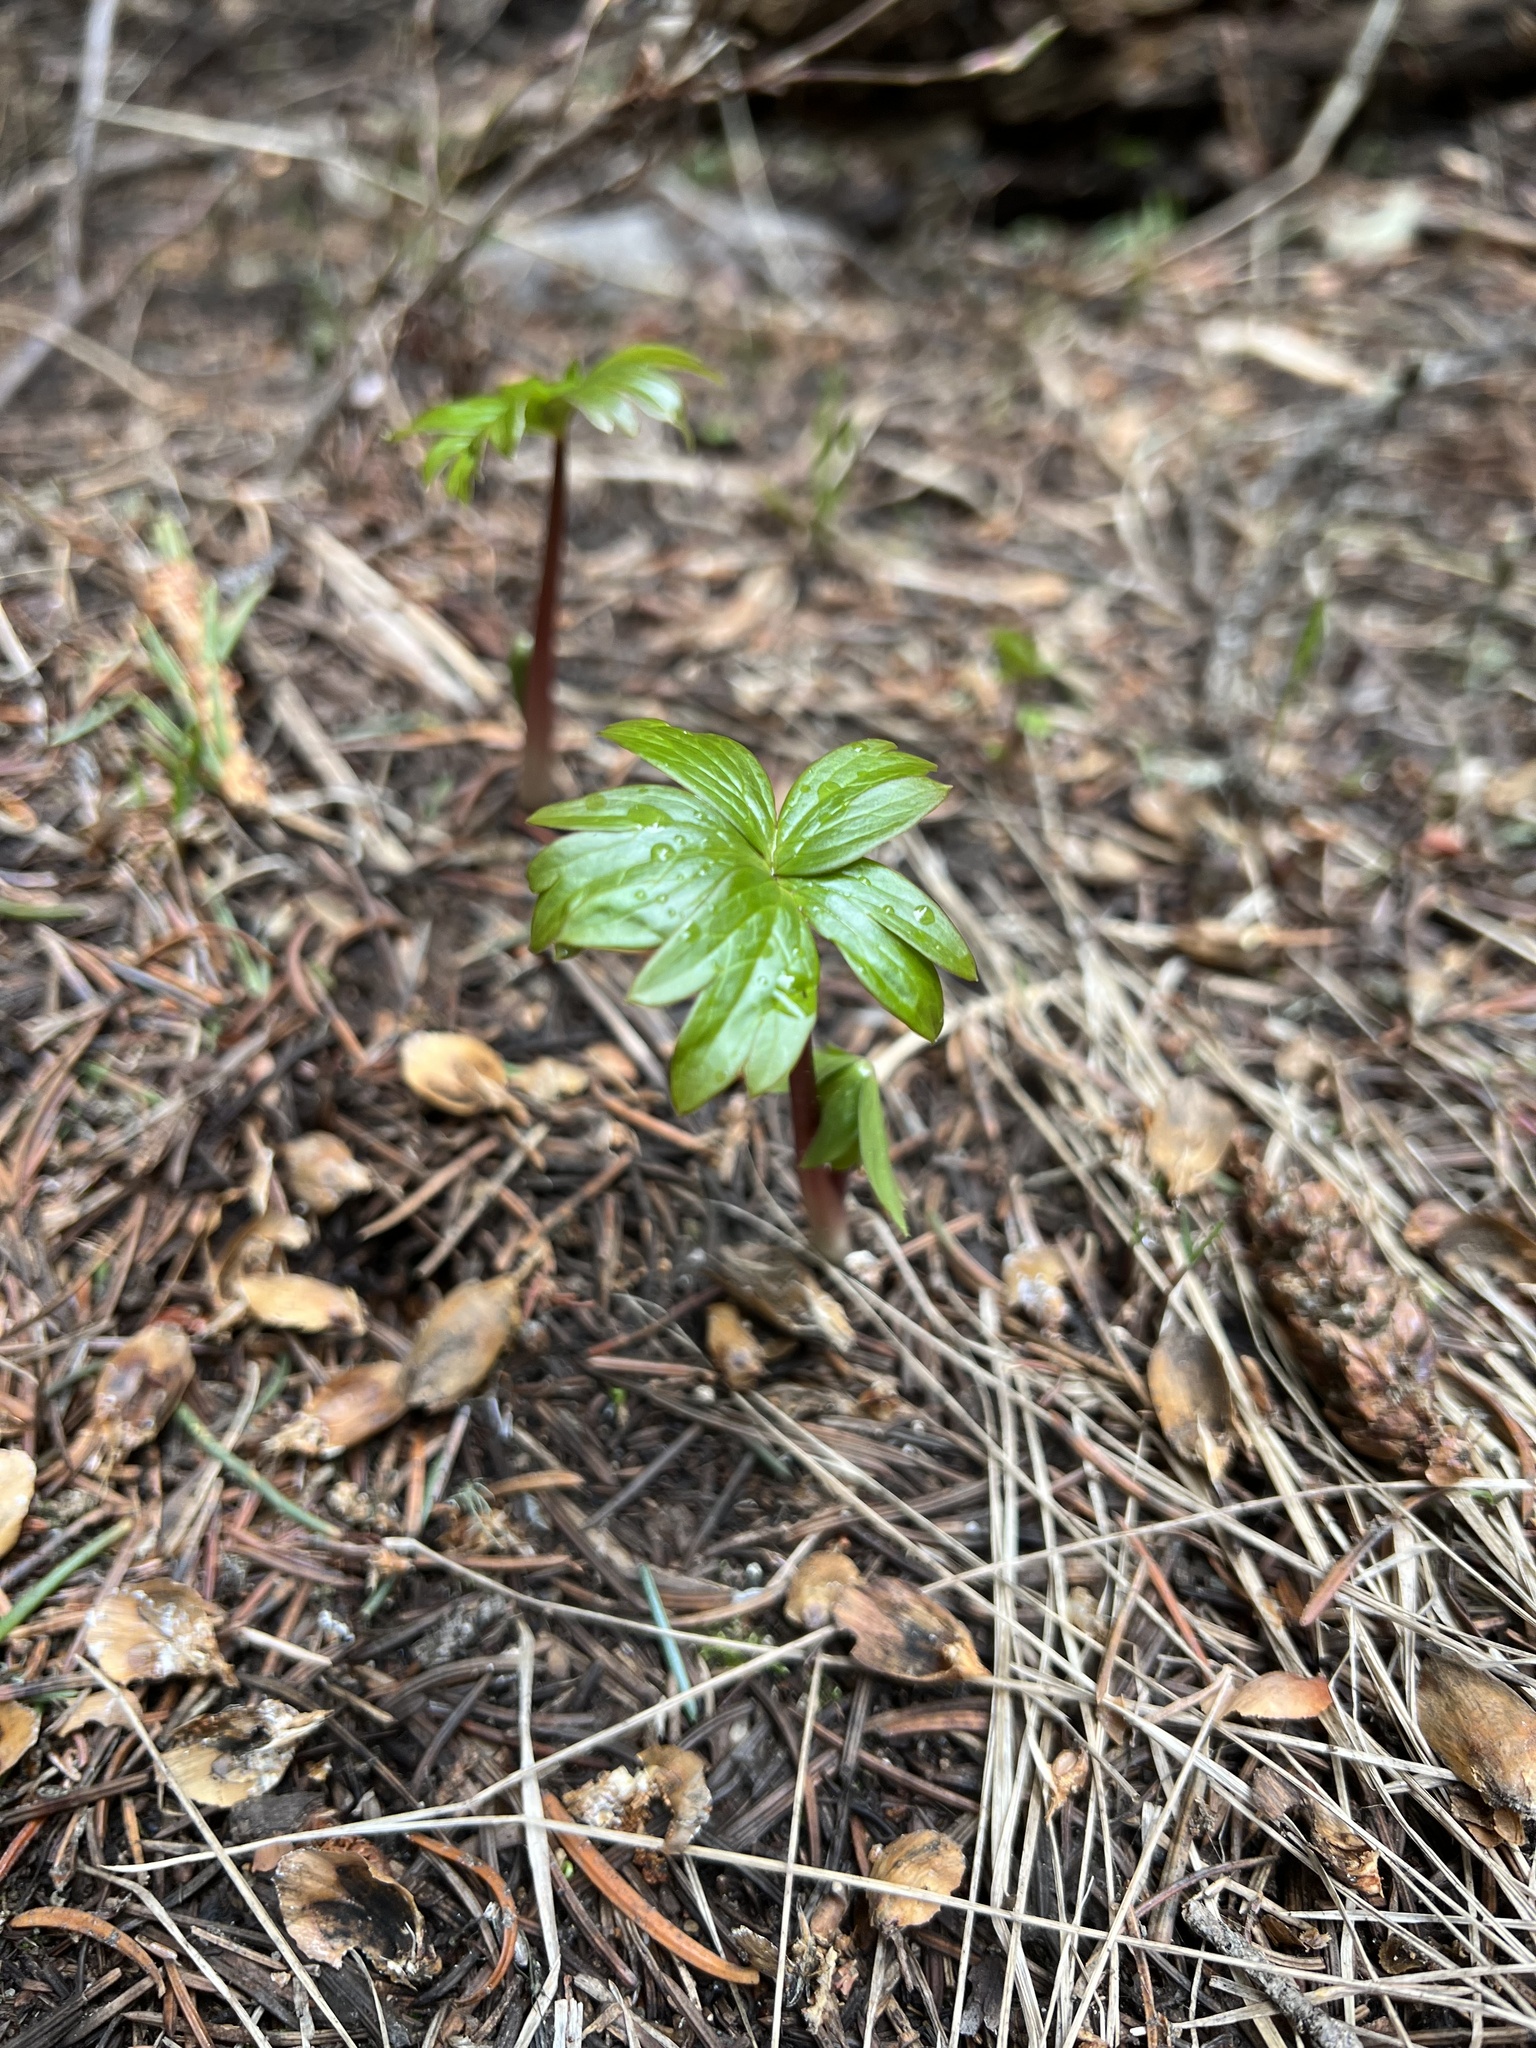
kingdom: Plantae
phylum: Tracheophyta
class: Magnoliopsida
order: Boraginales
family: Hydrophyllaceae
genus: Hydrophyllum
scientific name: Hydrophyllum capitatum
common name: Woollen-breeches
